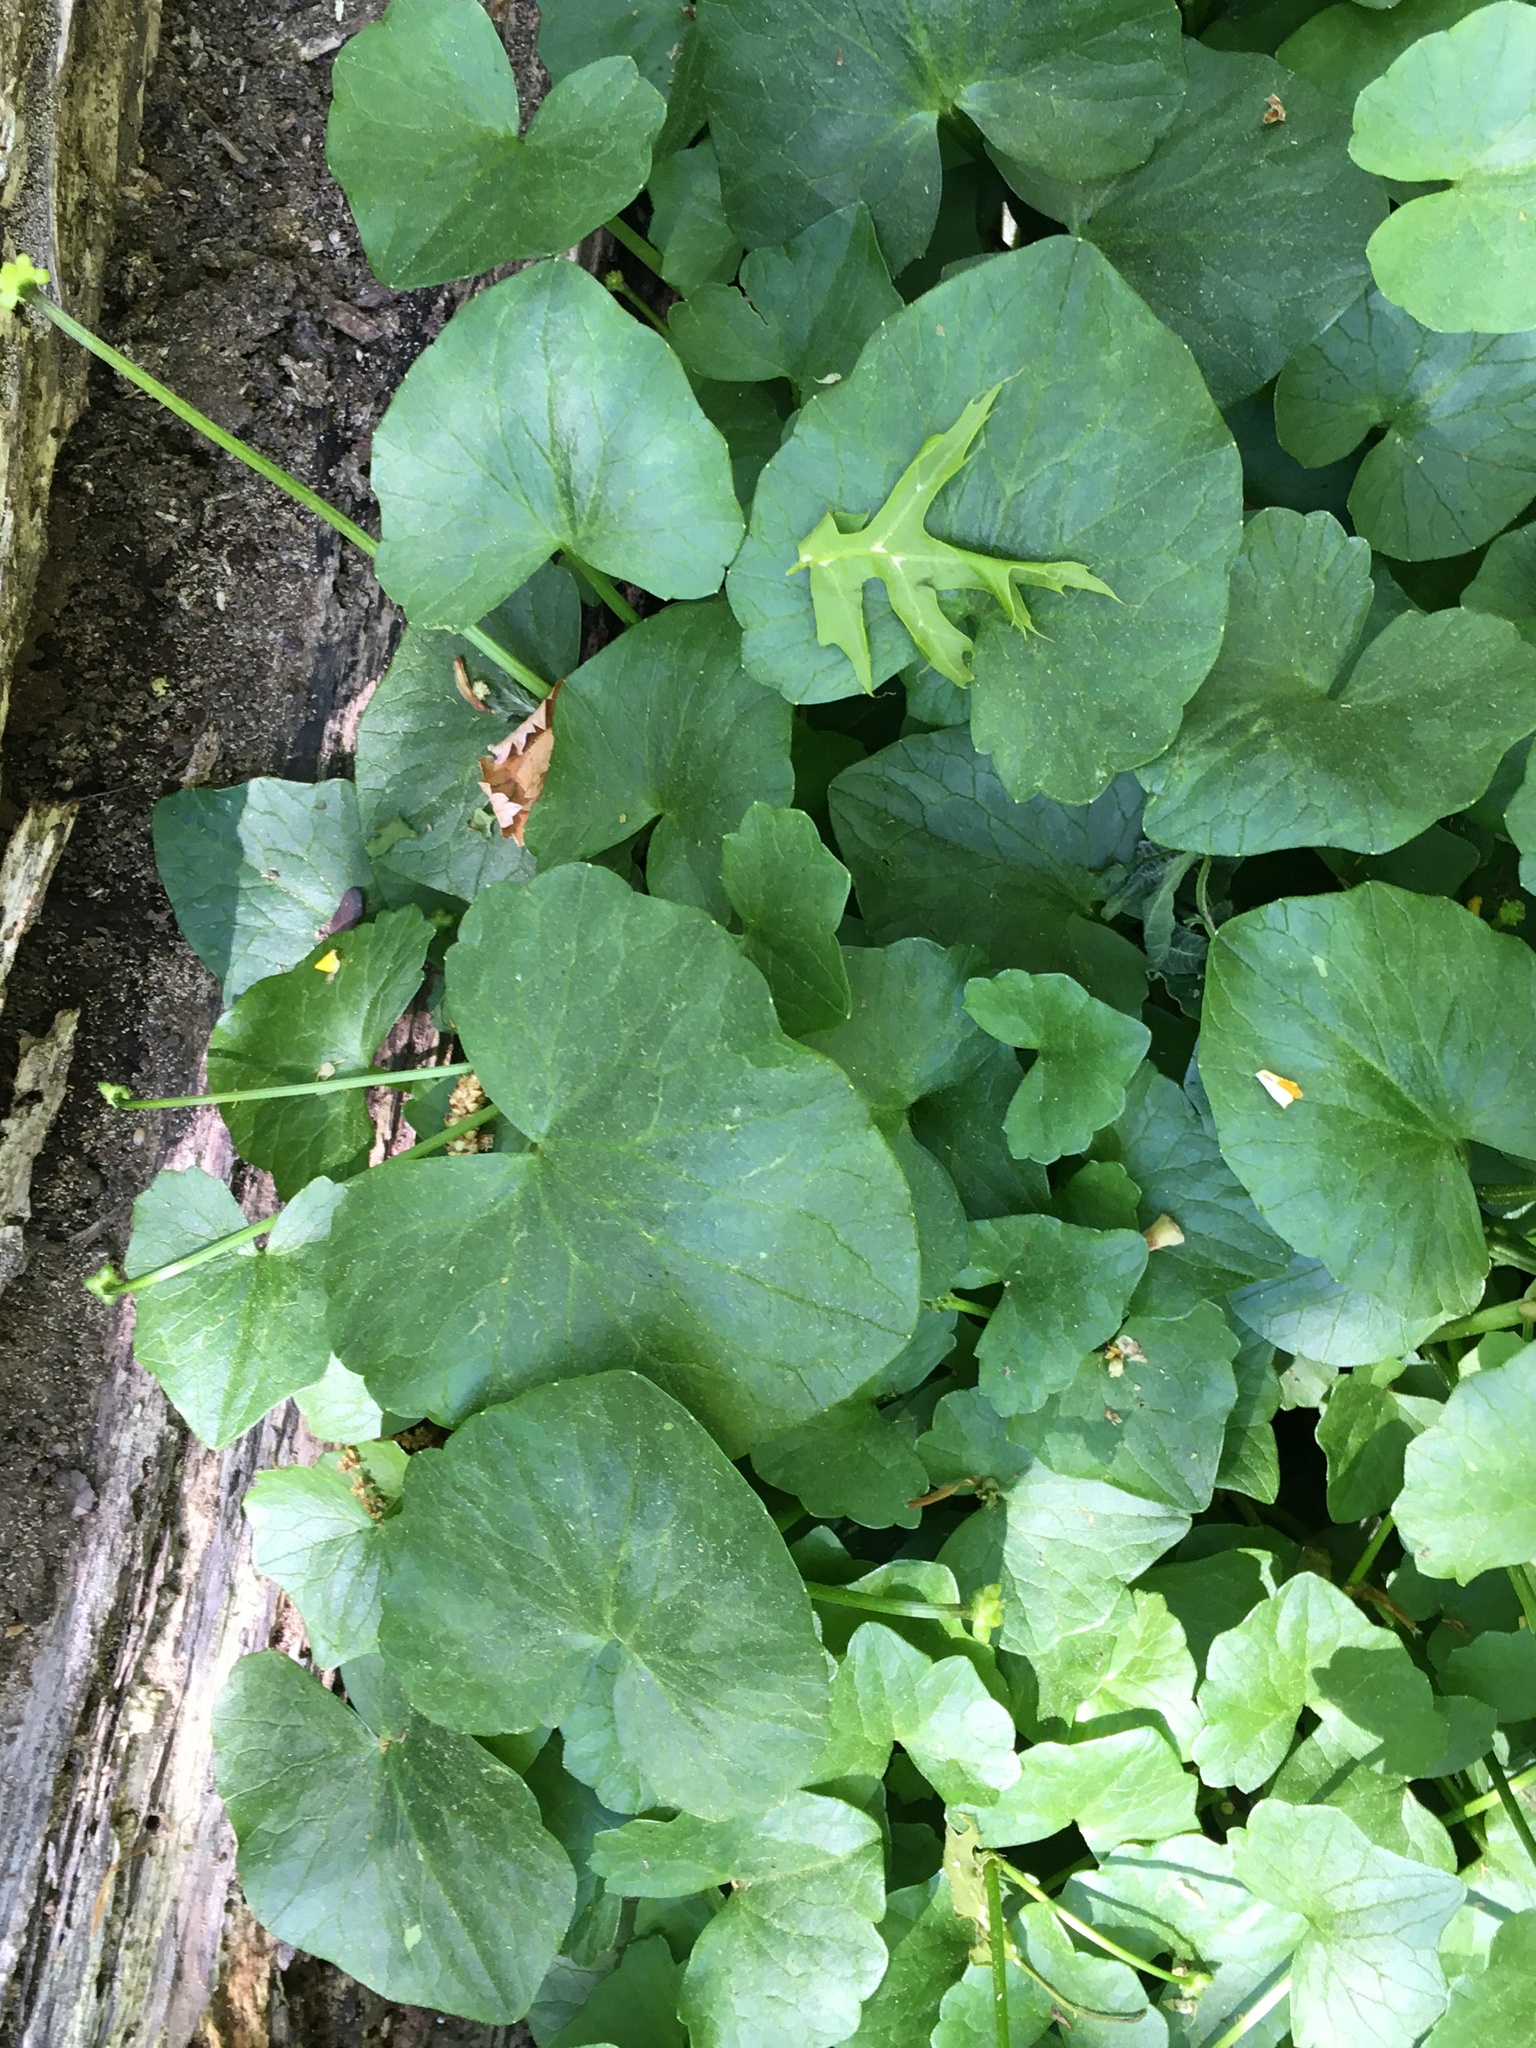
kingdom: Plantae
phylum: Tracheophyta
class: Magnoliopsida
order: Ranunculales
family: Ranunculaceae
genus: Ficaria
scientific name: Ficaria verna
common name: Lesser celandine
